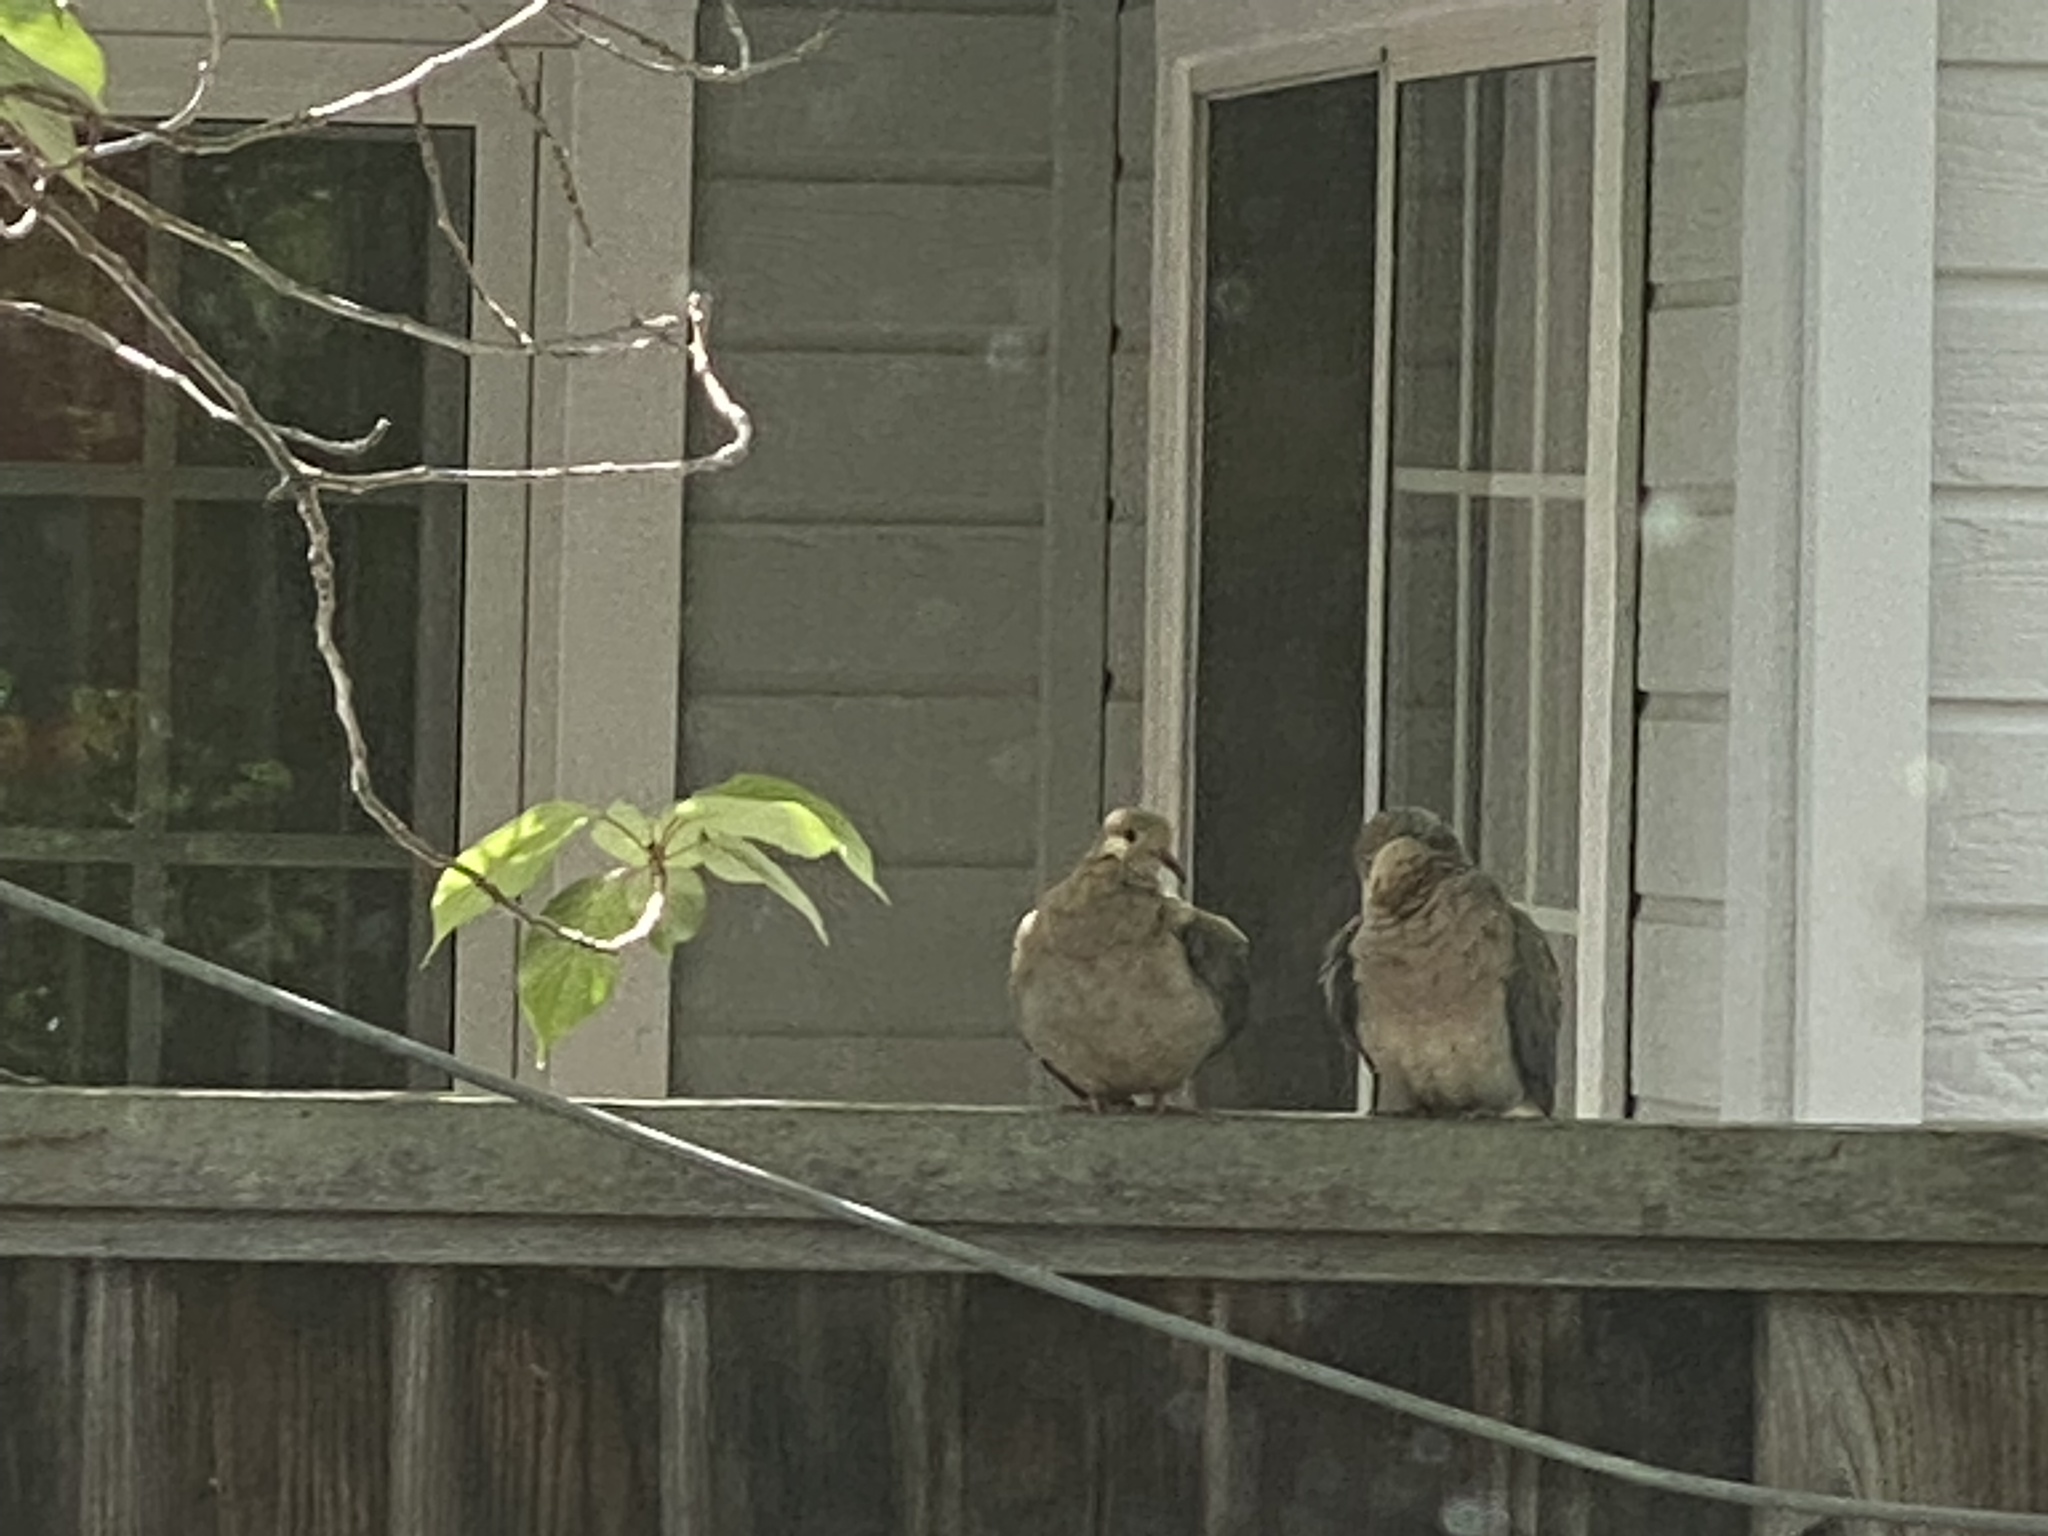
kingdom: Animalia
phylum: Chordata
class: Aves
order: Columbiformes
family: Columbidae
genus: Zenaida
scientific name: Zenaida macroura
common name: Mourning dove
